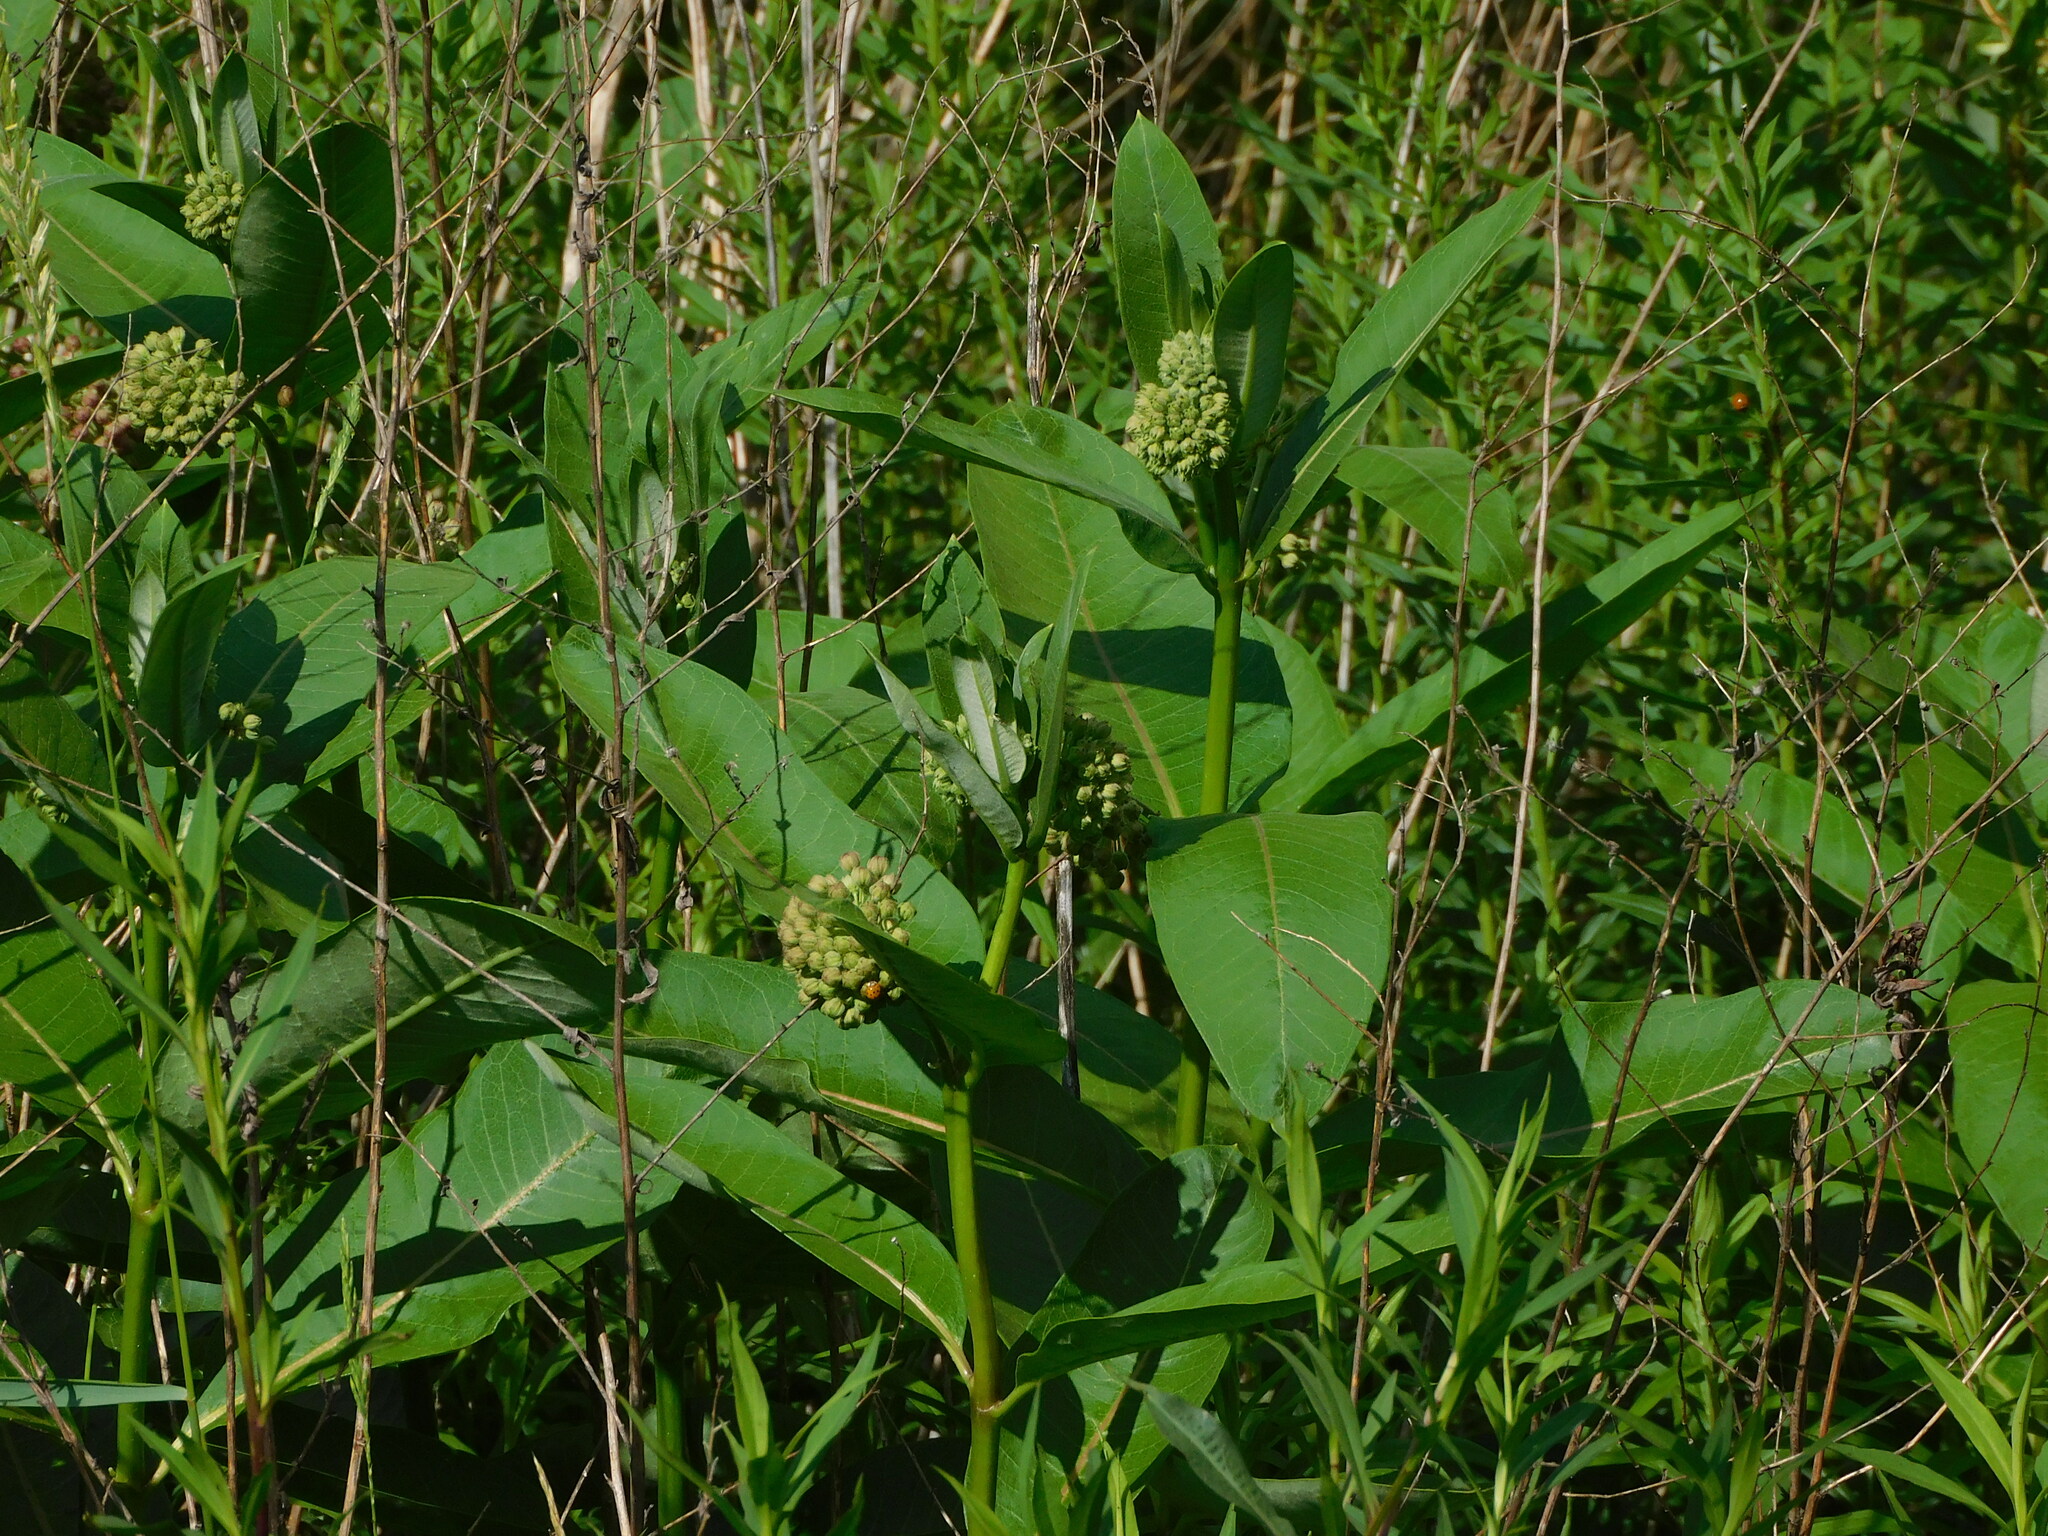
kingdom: Plantae
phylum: Tracheophyta
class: Magnoliopsida
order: Gentianales
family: Apocynaceae
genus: Asclepias
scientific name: Asclepias syriaca
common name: Common milkweed
